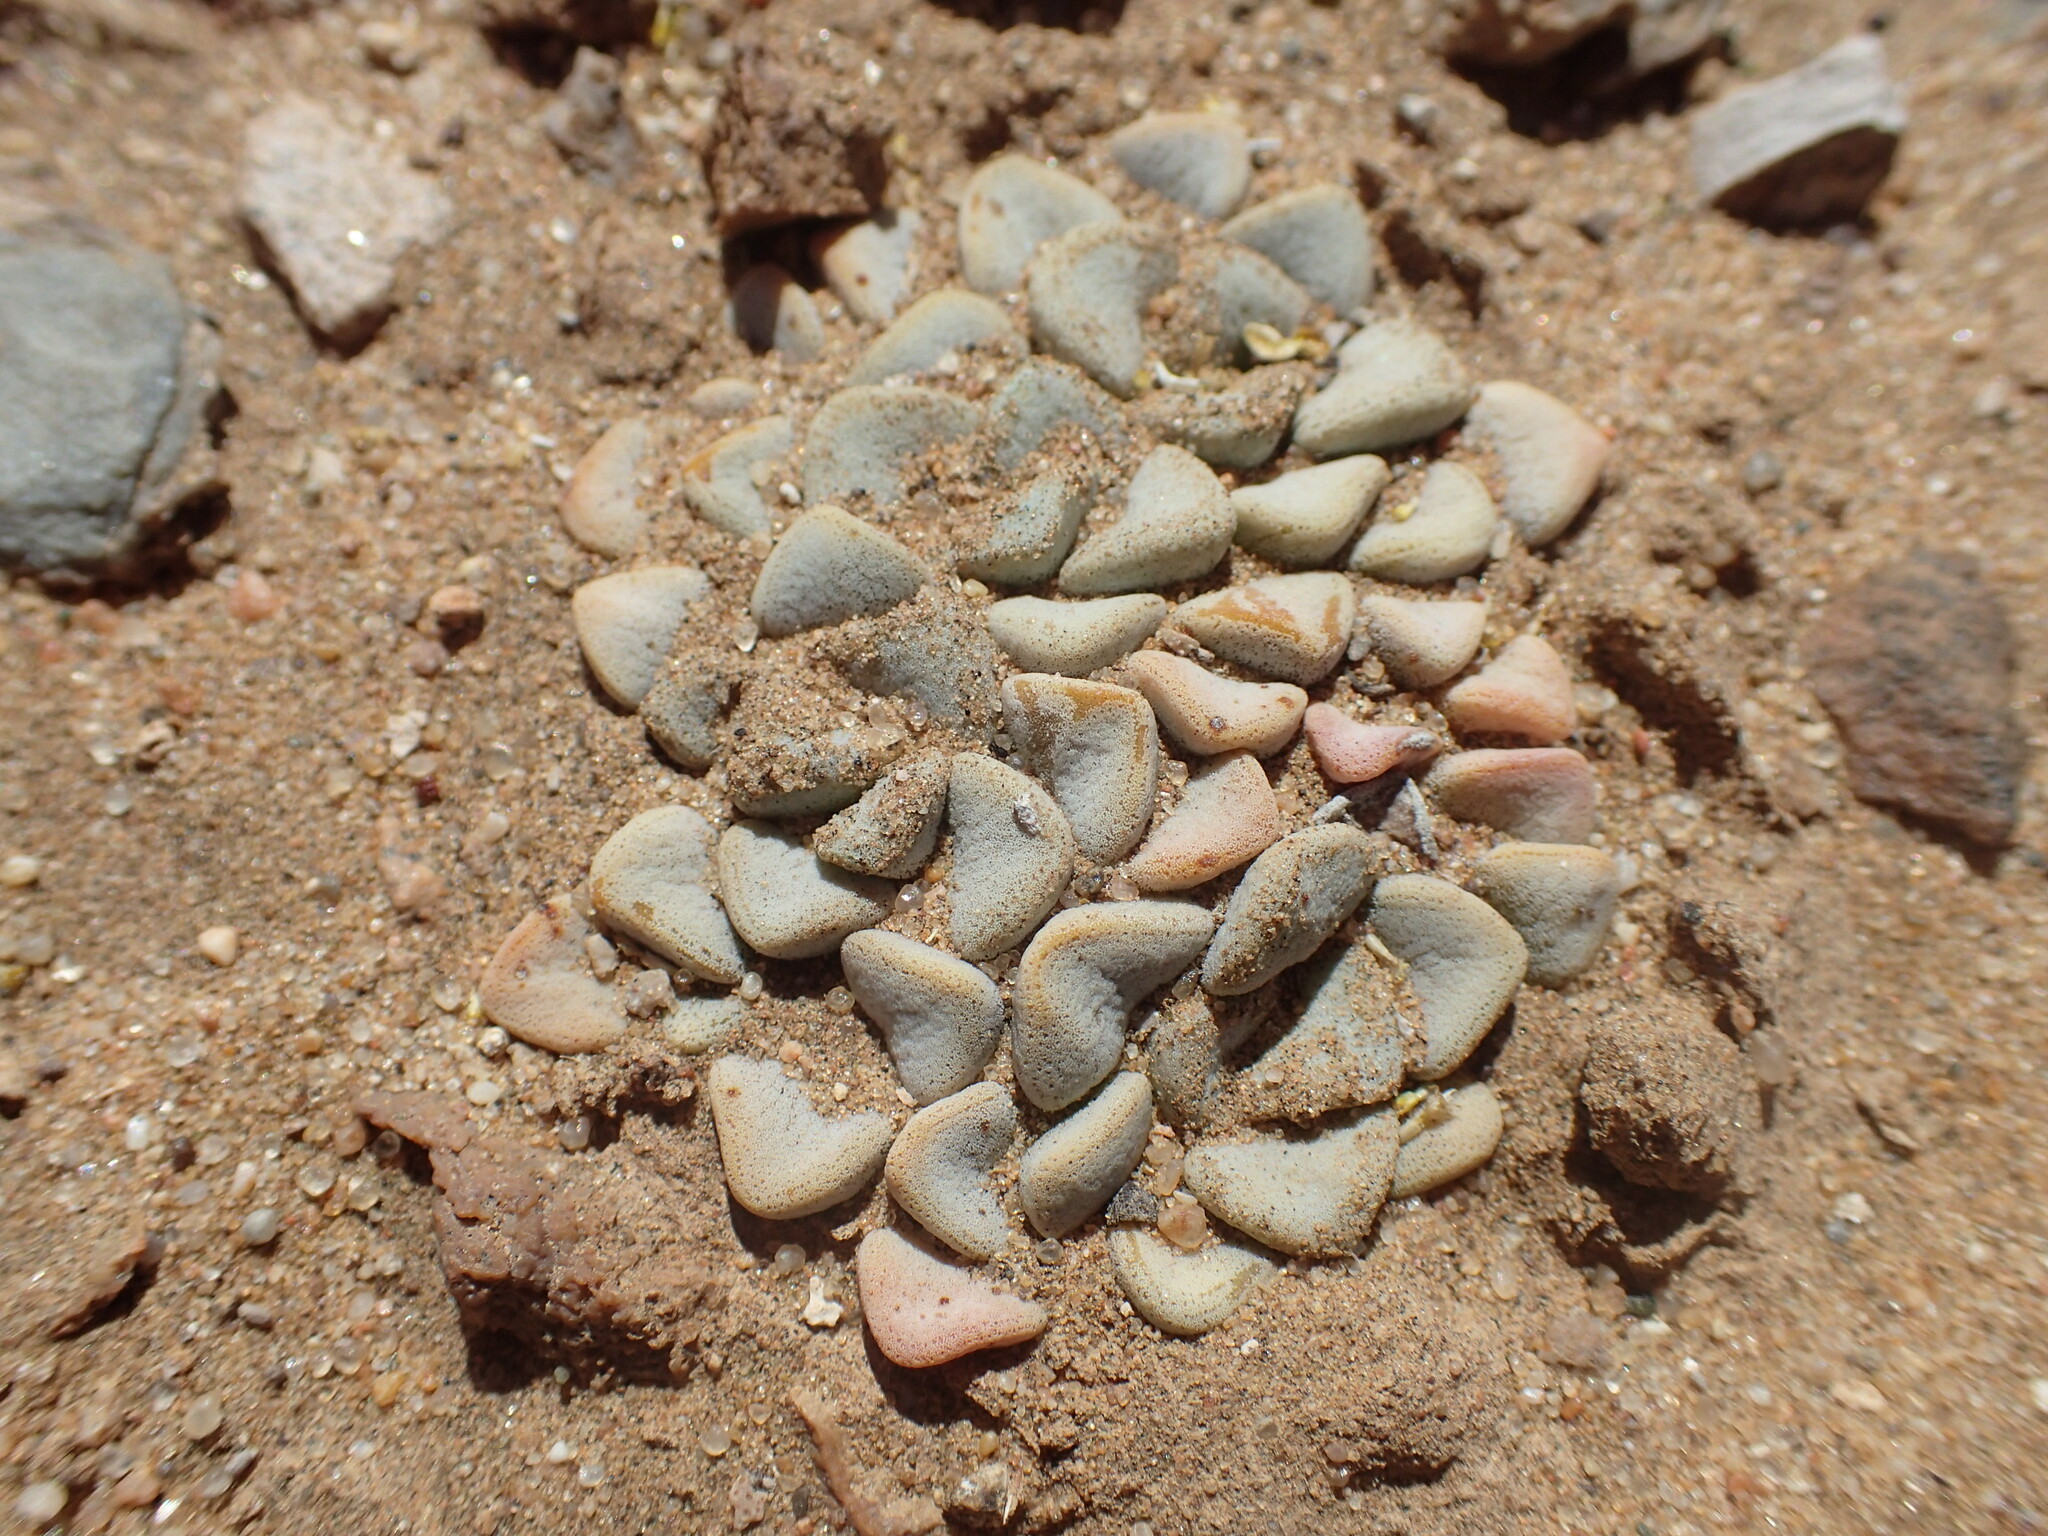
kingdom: Plantae
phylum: Tracheophyta
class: Magnoliopsida
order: Saxifragales
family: Crassulaceae
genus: Crassula
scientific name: Crassula elegans
